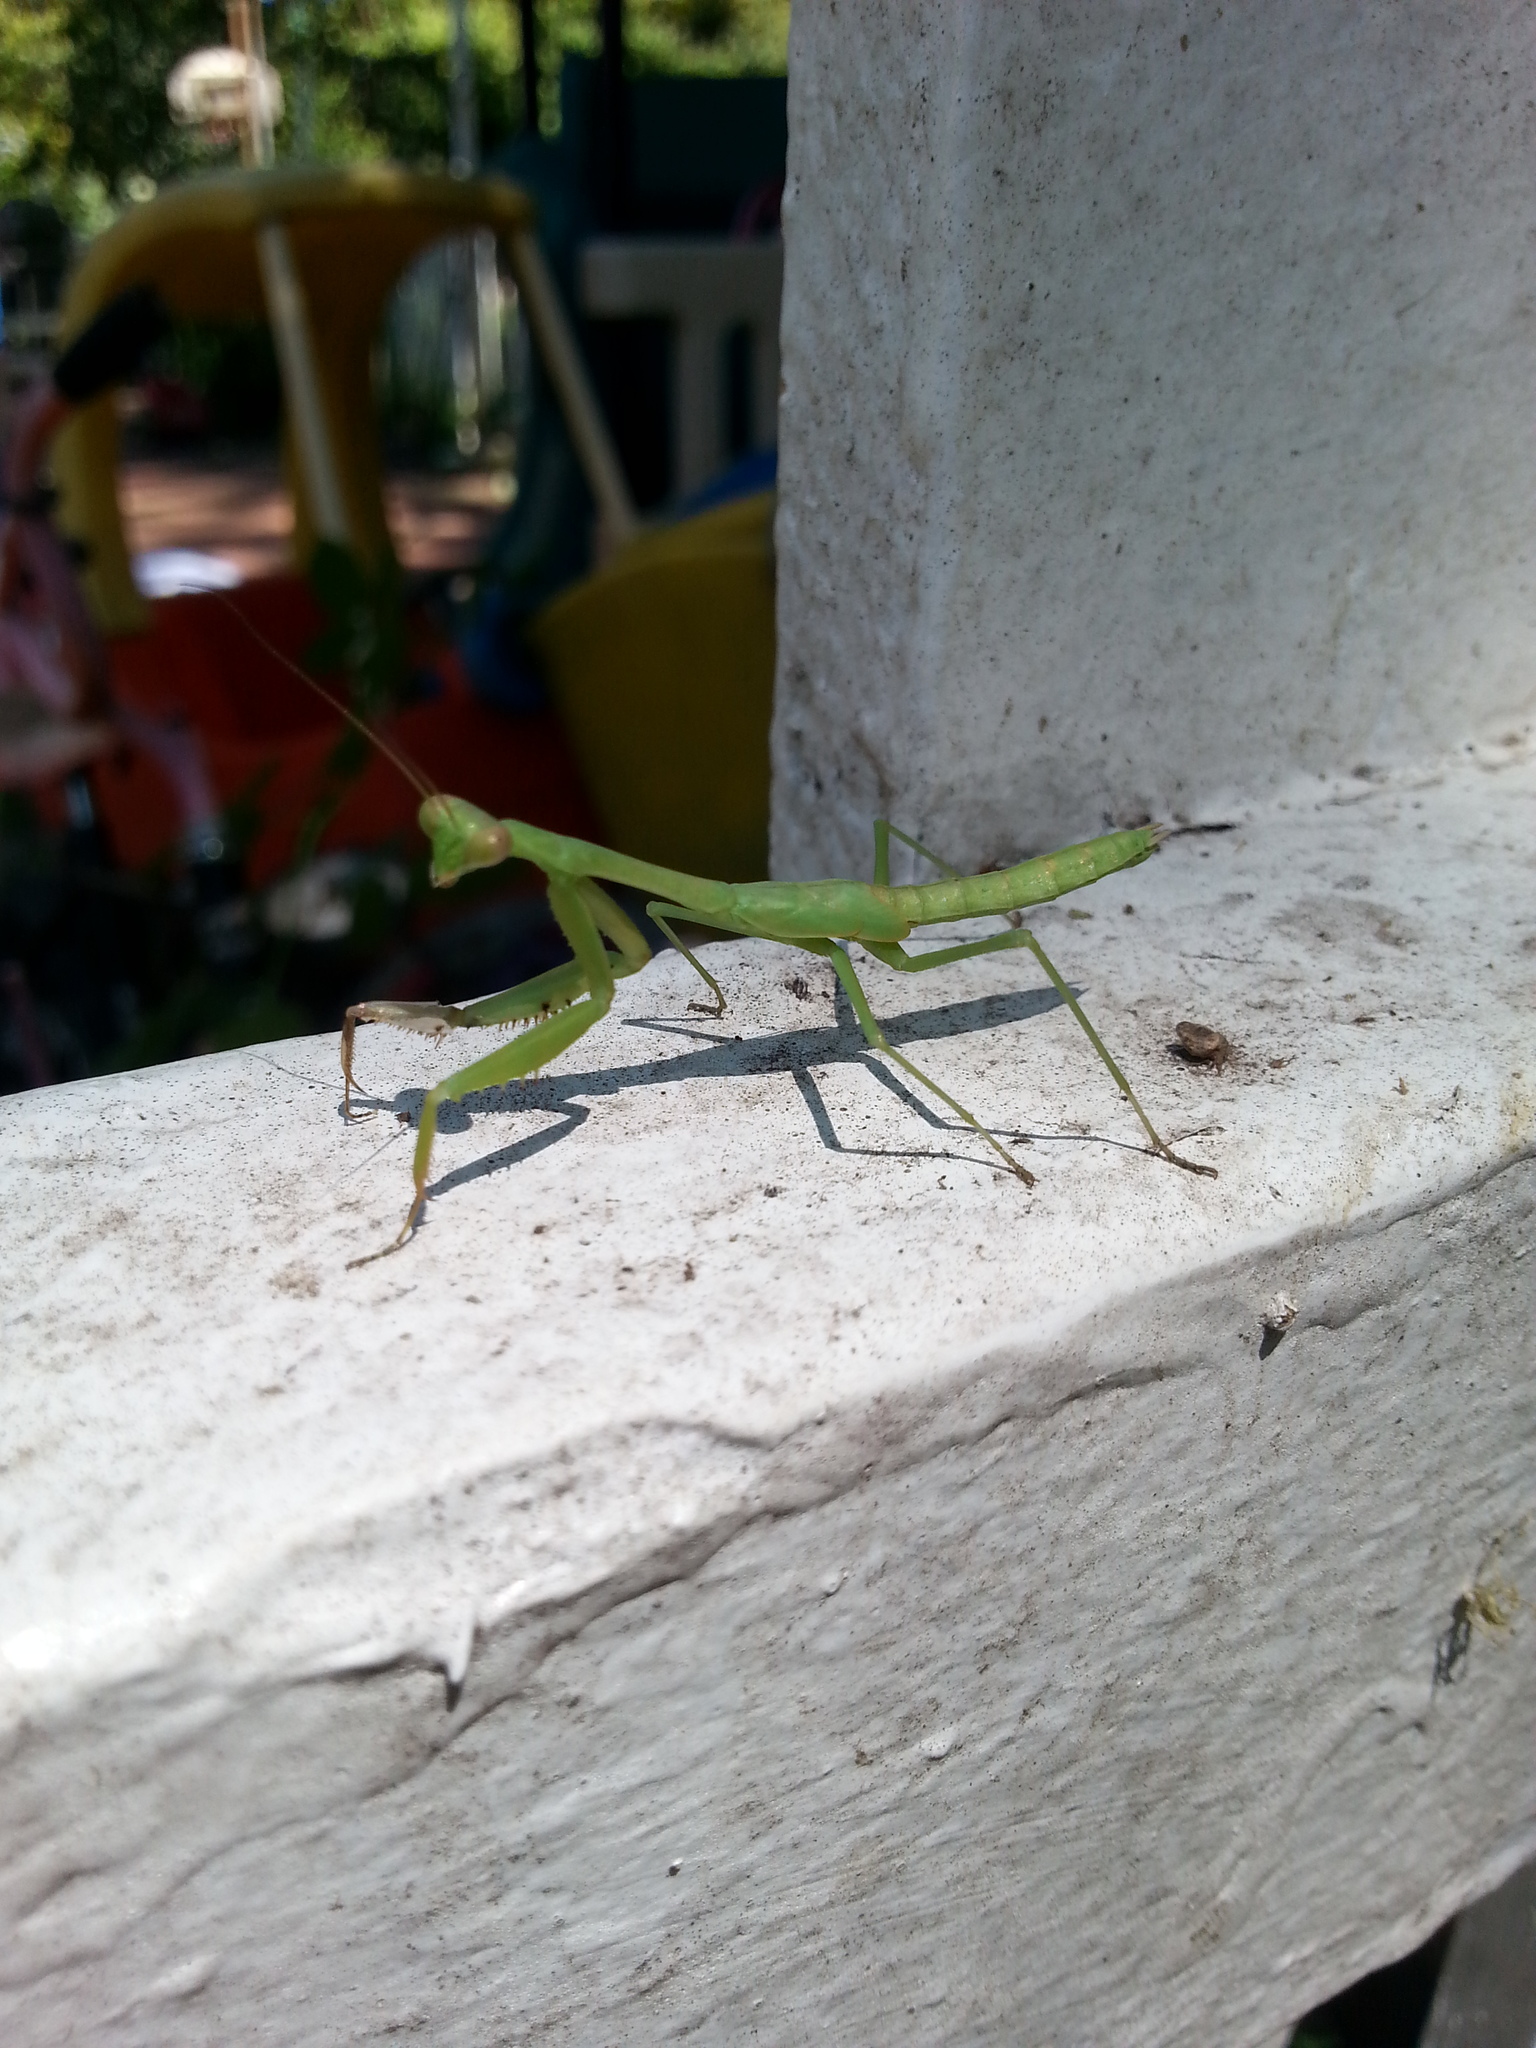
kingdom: Animalia
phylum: Arthropoda
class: Insecta
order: Mantodea
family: Mantidae
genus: Stagmomantis
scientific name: Stagmomantis carolina
